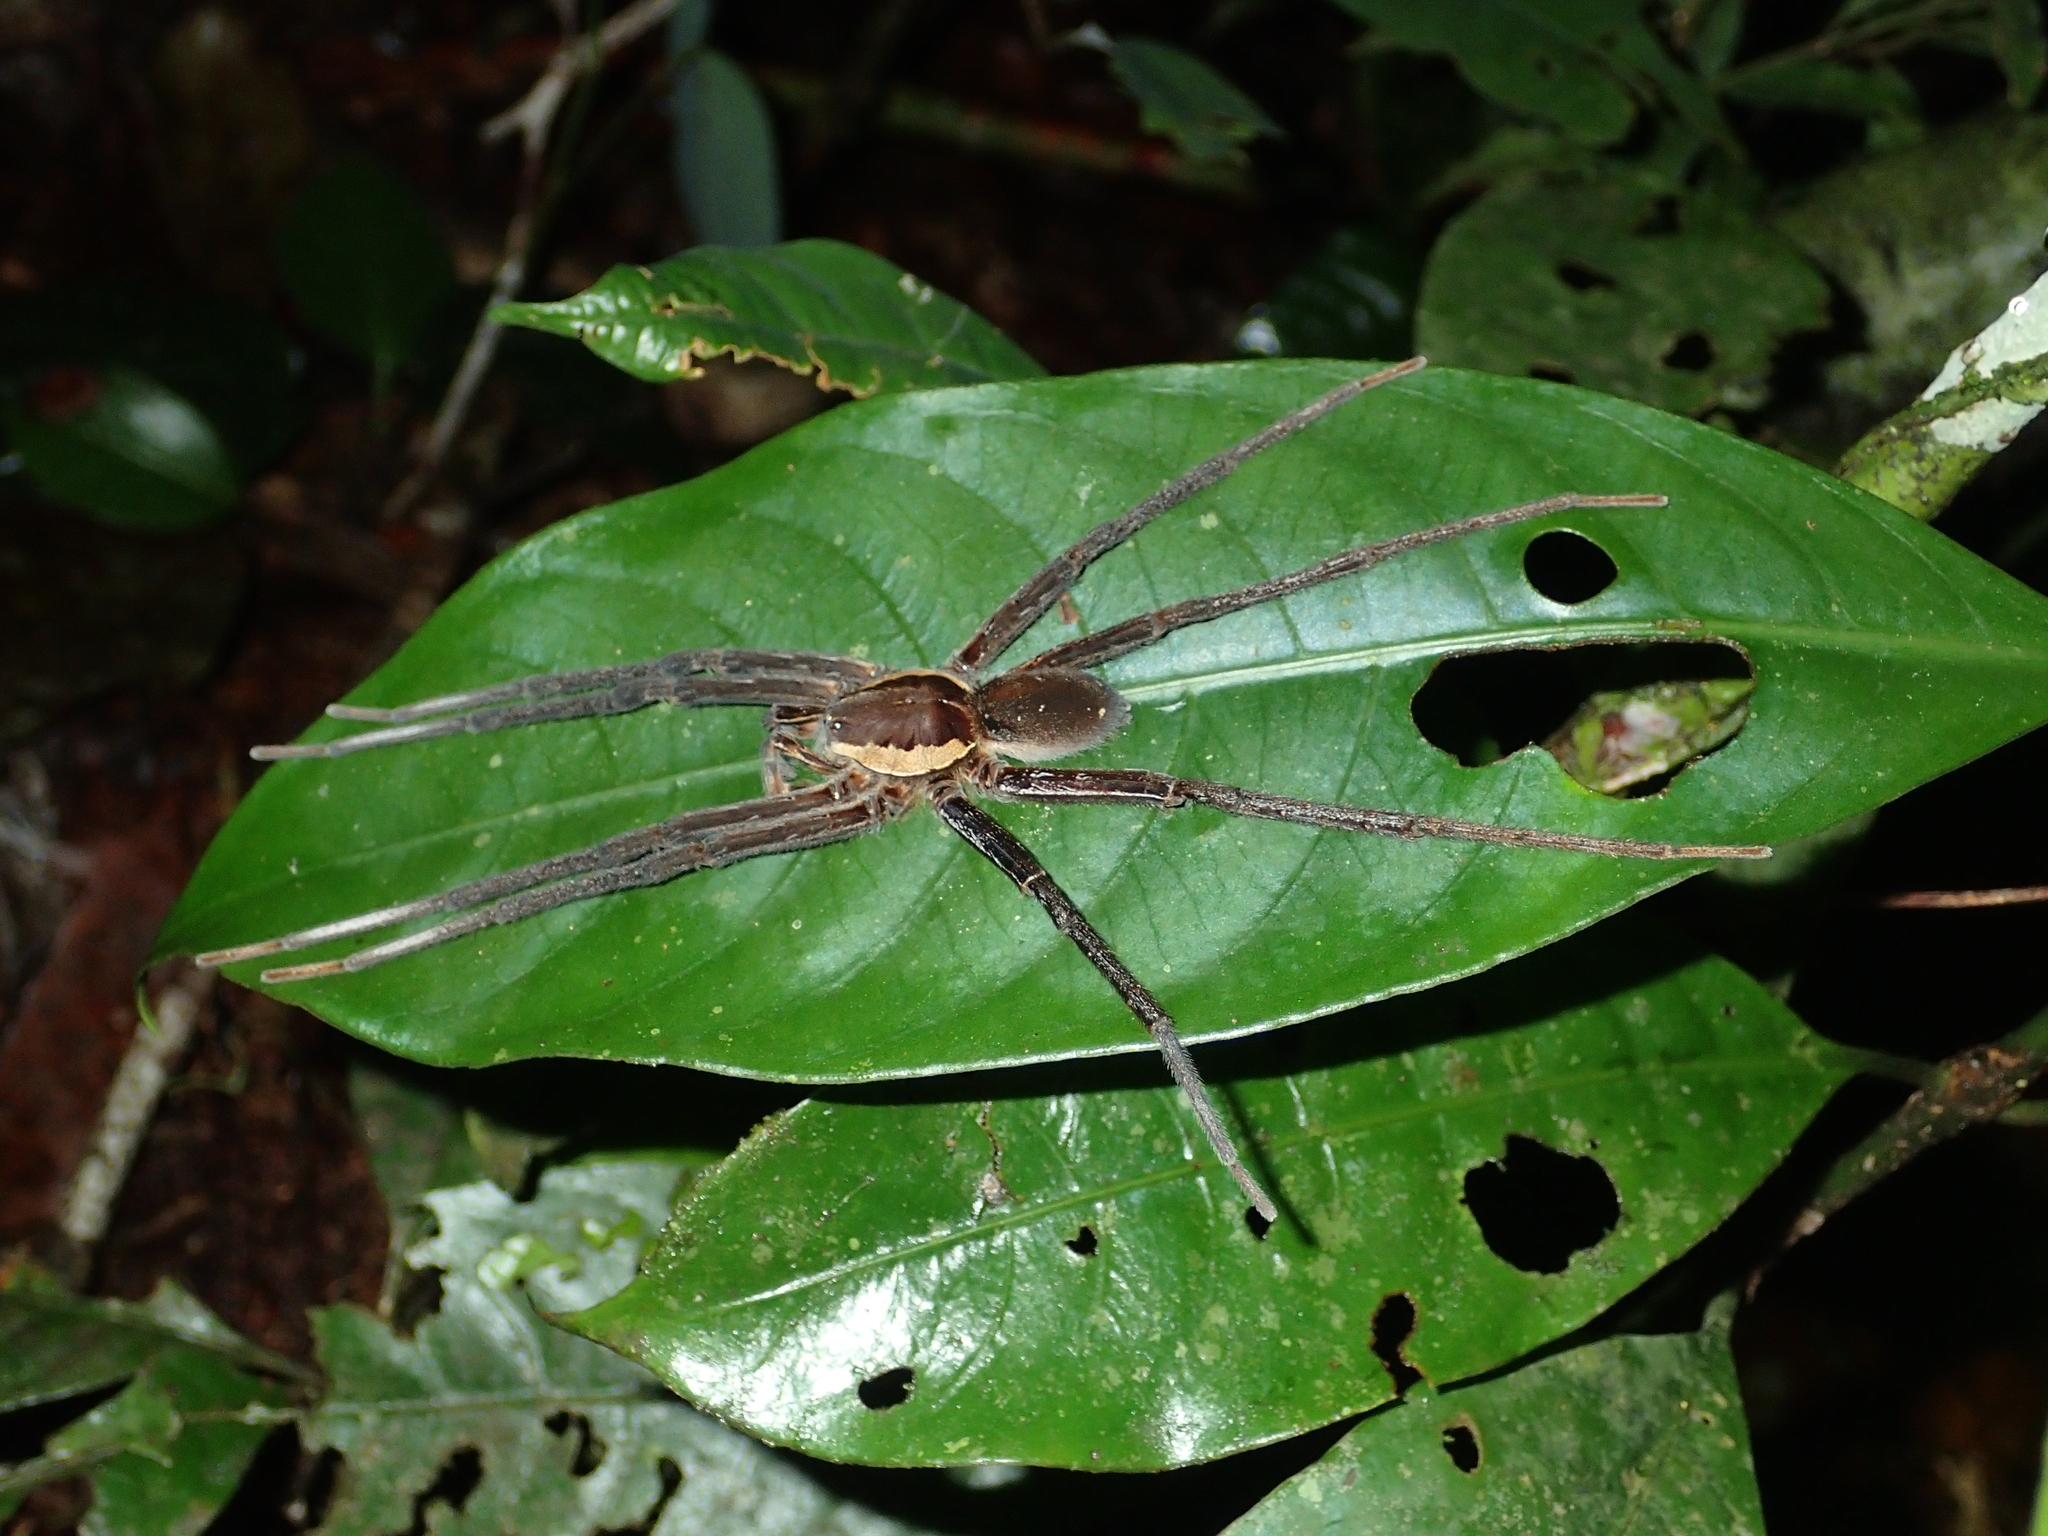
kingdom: Animalia
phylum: Arthropoda
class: Arachnida
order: Araneae
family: Ctenidae
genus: Ancylometes
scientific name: Ancylometes rufus
